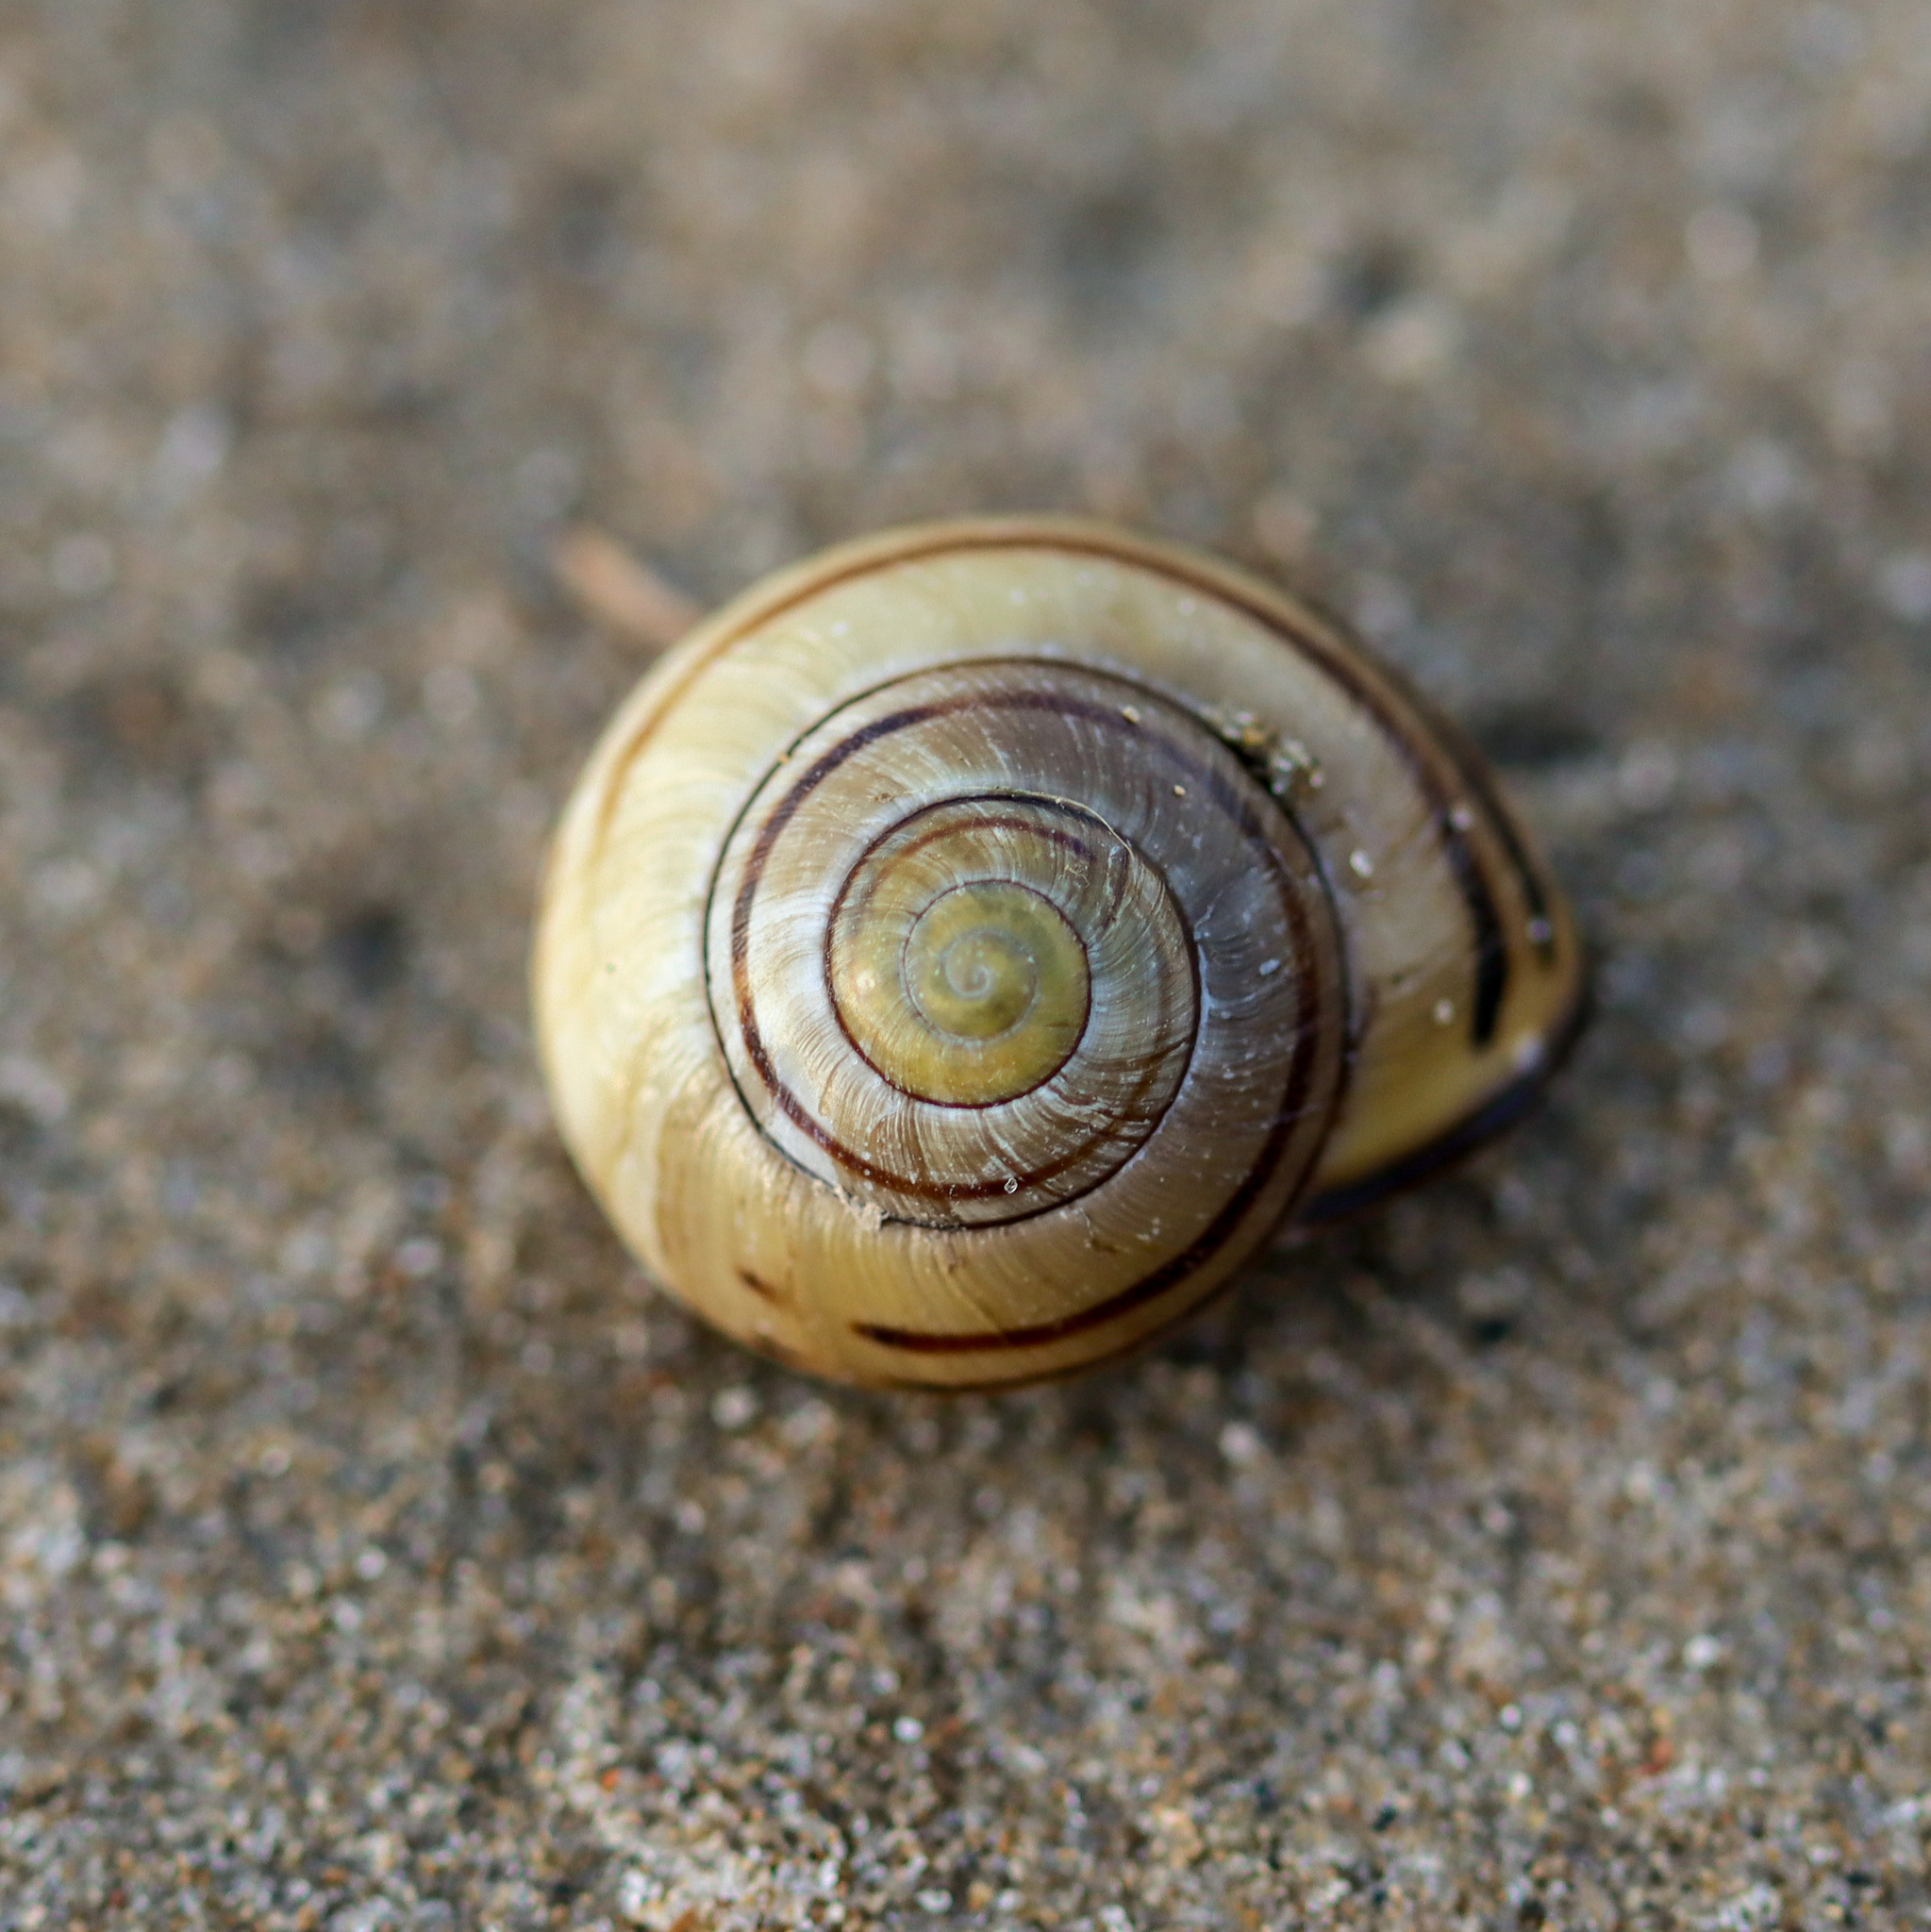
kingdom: Animalia
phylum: Mollusca
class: Gastropoda
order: Stylommatophora
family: Helicidae
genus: Cepaea
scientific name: Cepaea nemoralis
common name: Grovesnail
